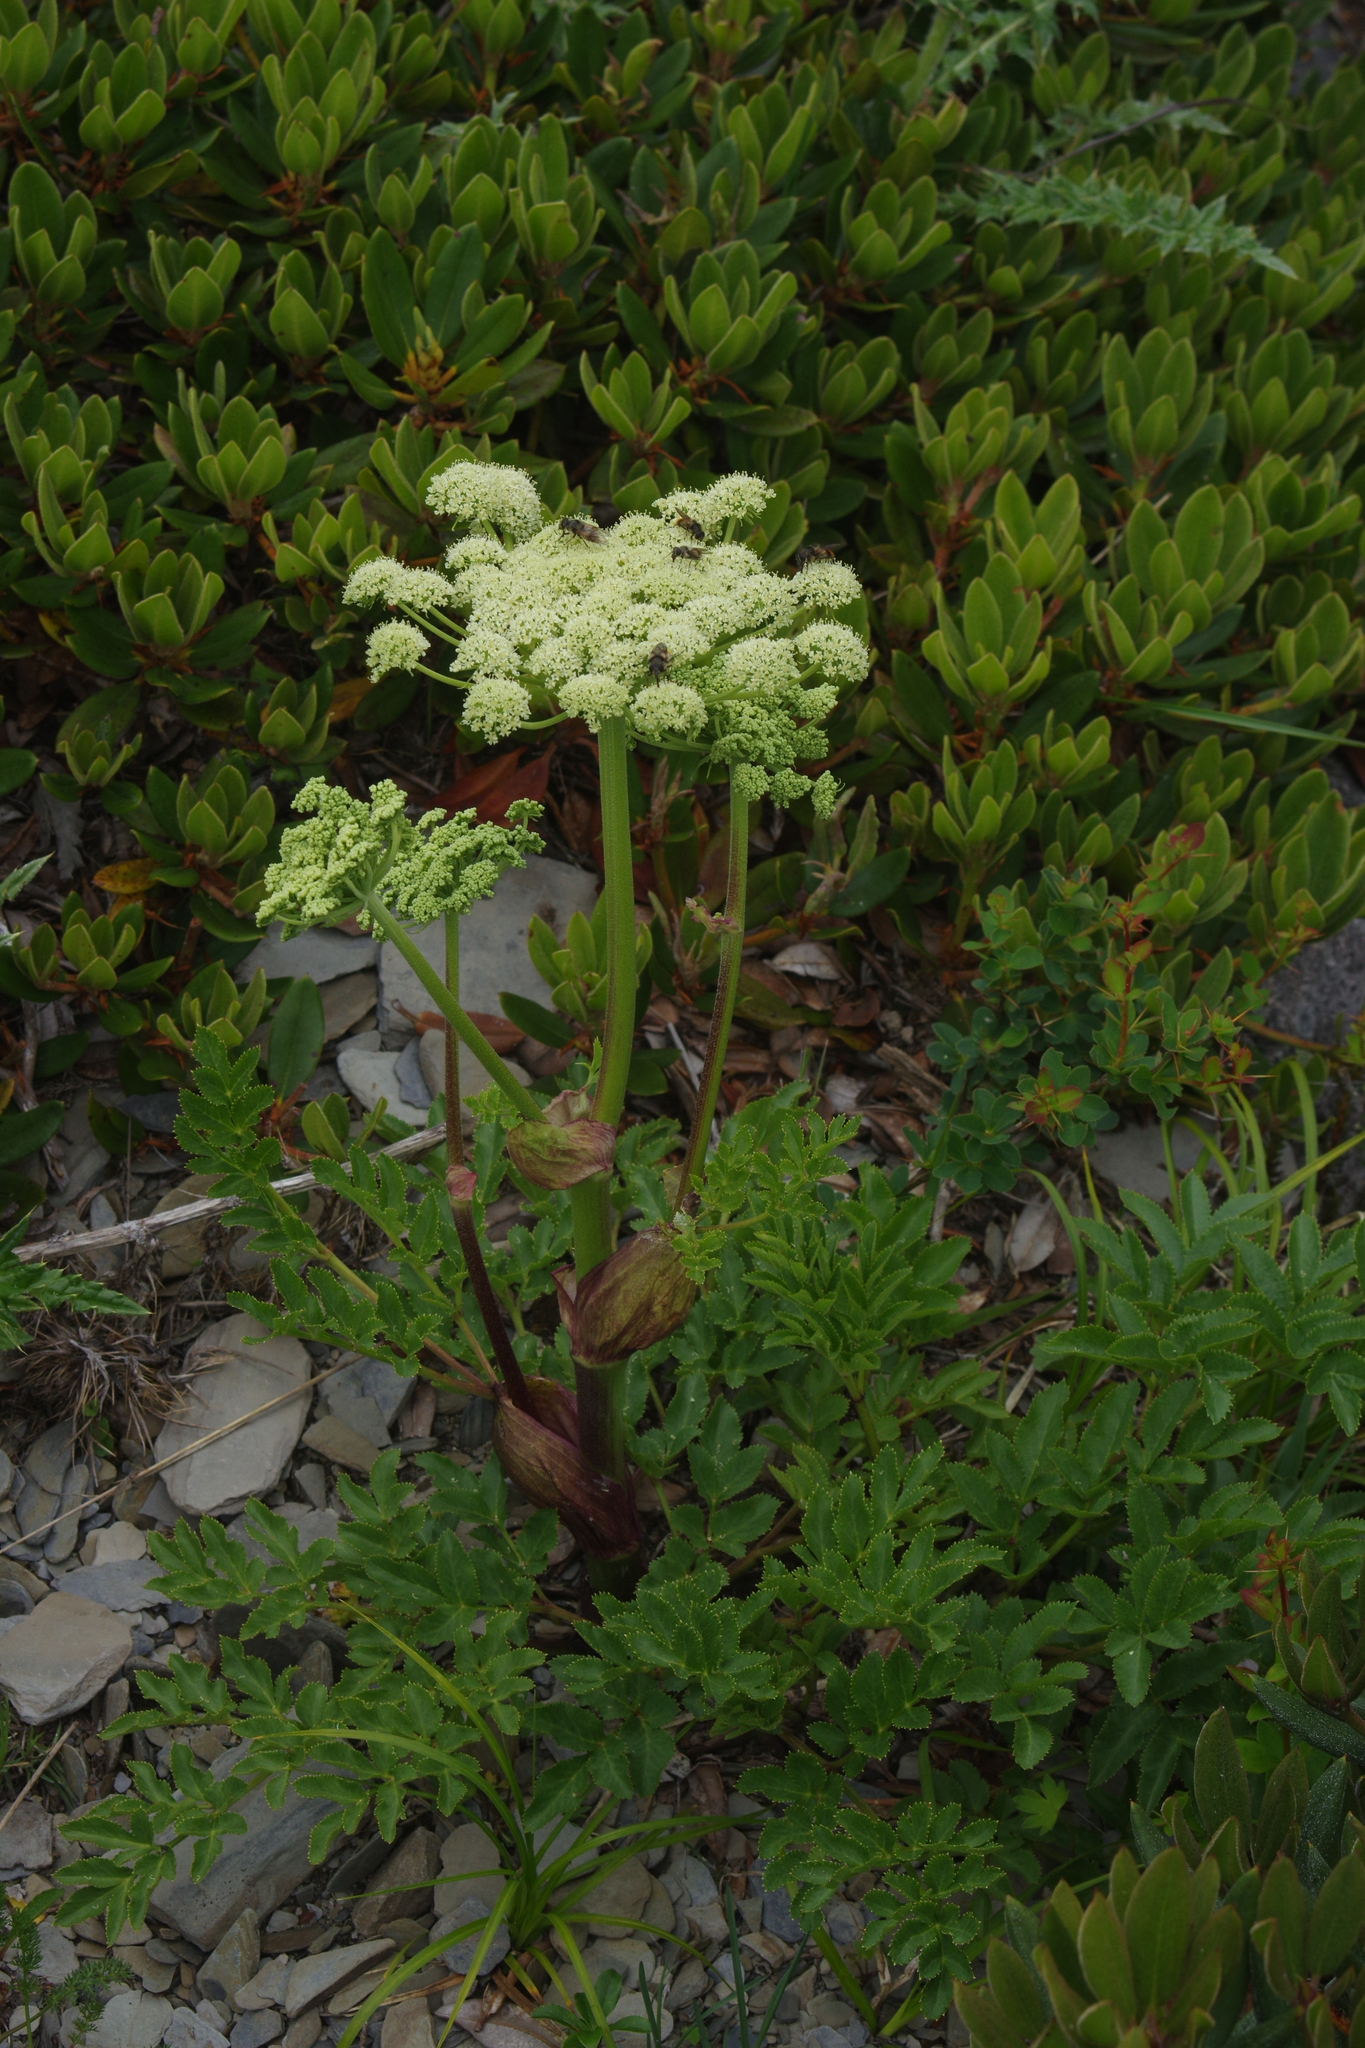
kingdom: Plantae
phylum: Tracheophyta
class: Magnoliopsida
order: Apiales
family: Apiaceae
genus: Angelica
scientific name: Angelica morrisonicola
